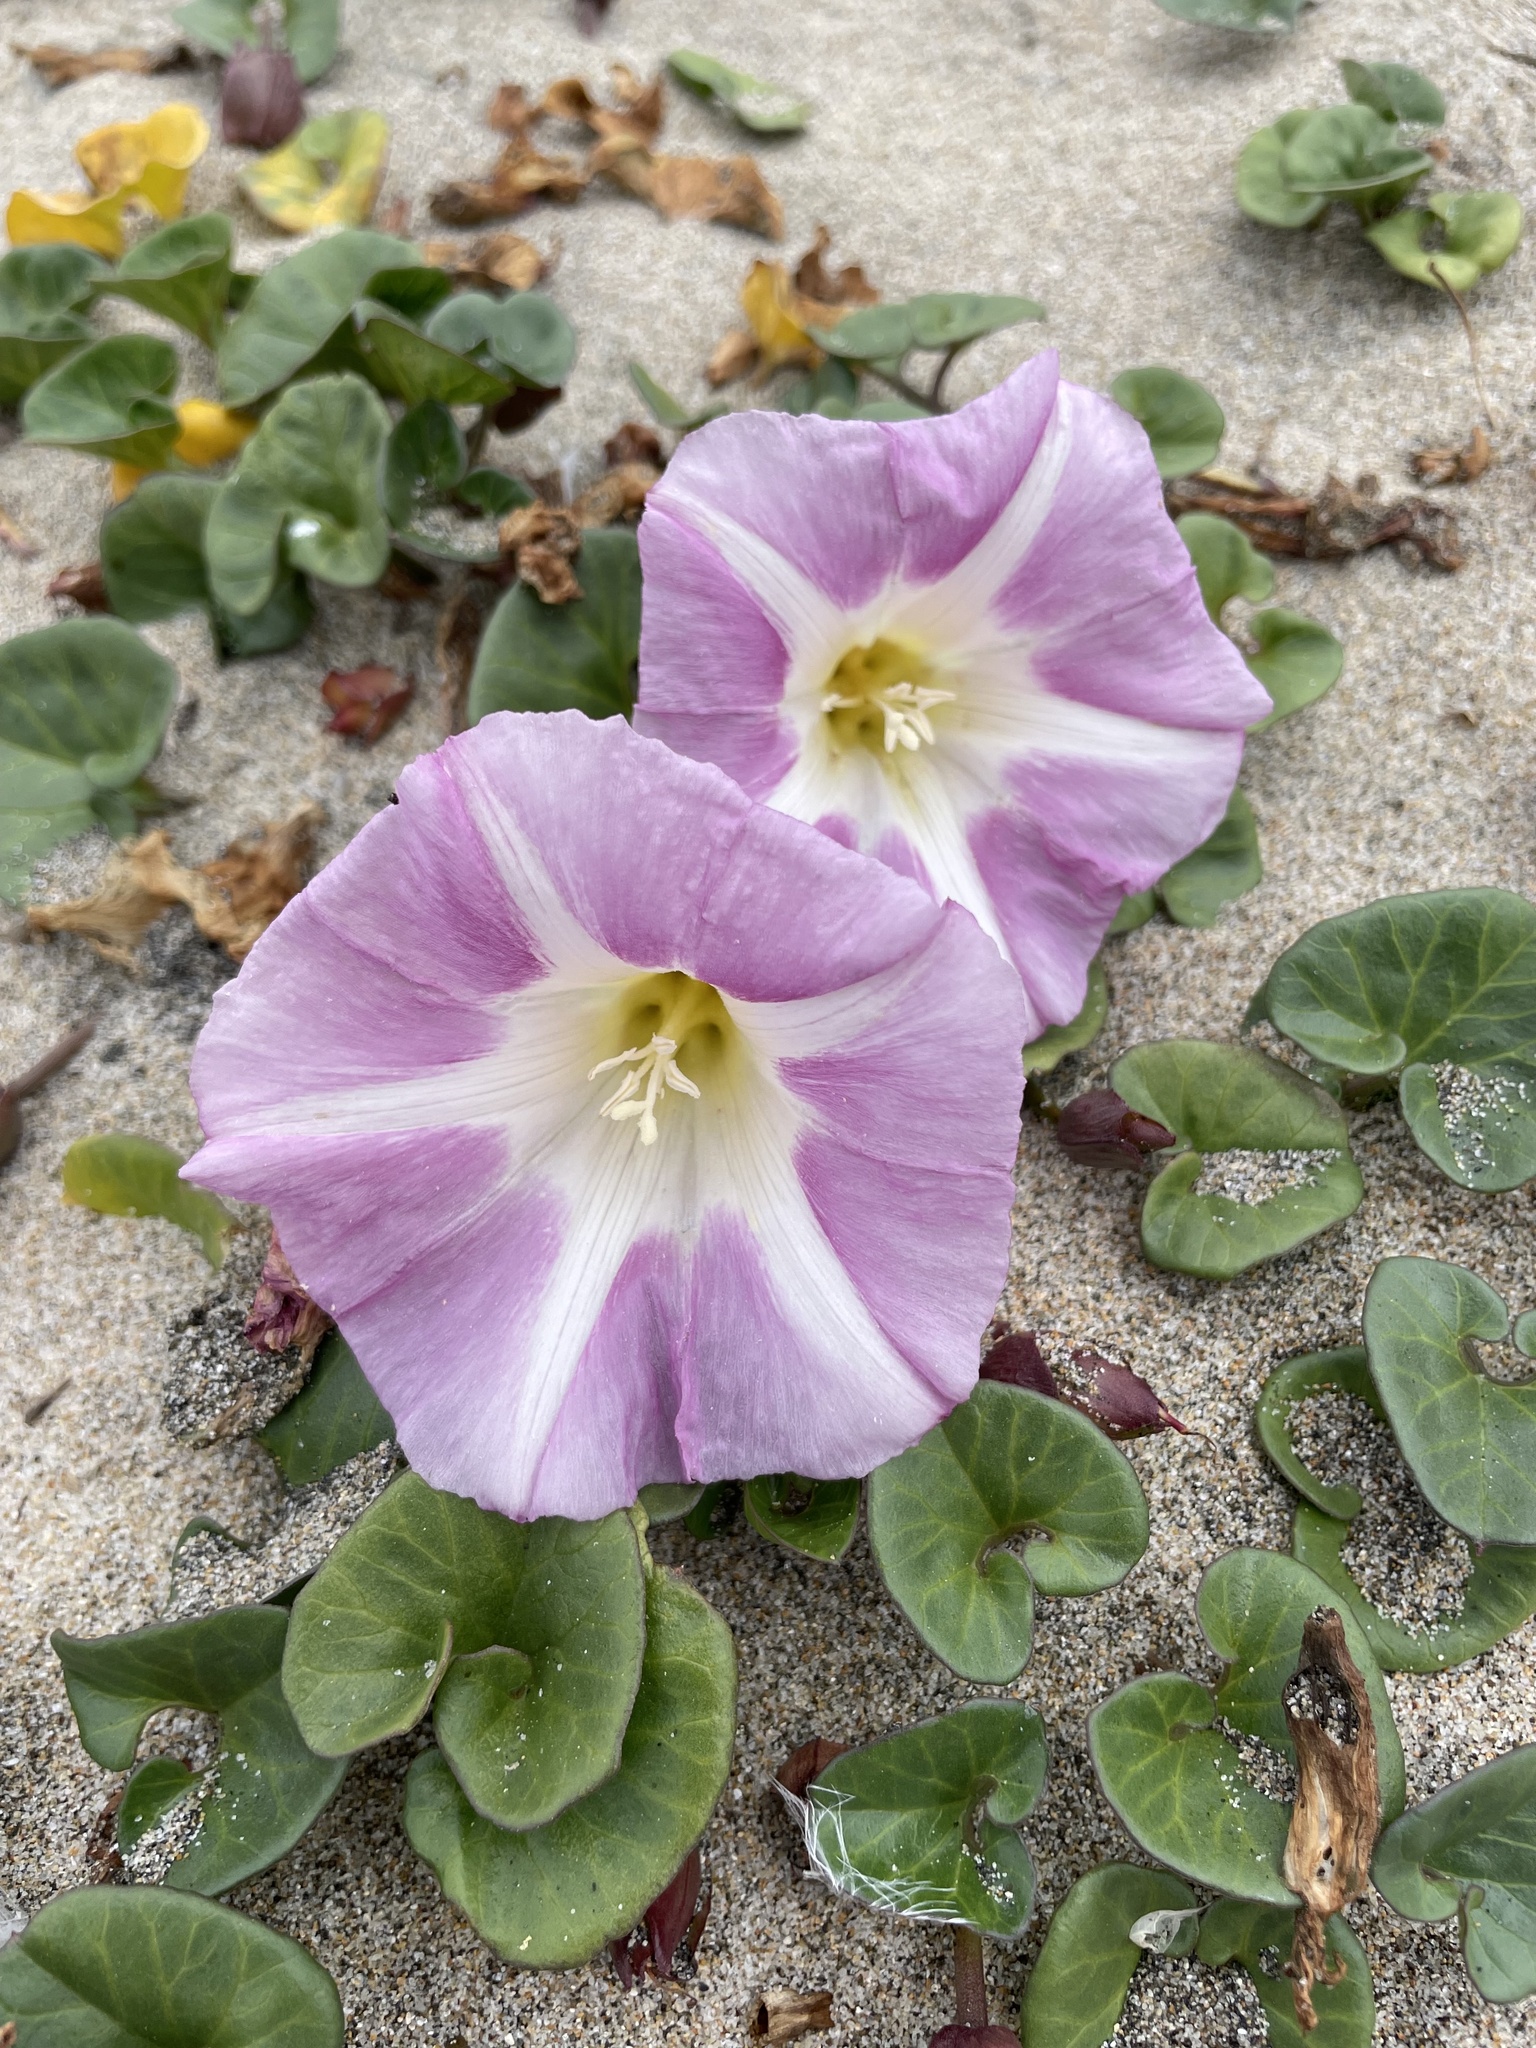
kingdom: Plantae
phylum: Tracheophyta
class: Magnoliopsida
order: Solanales
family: Convolvulaceae
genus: Calystegia
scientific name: Calystegia soldanella
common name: Sea bindweed
